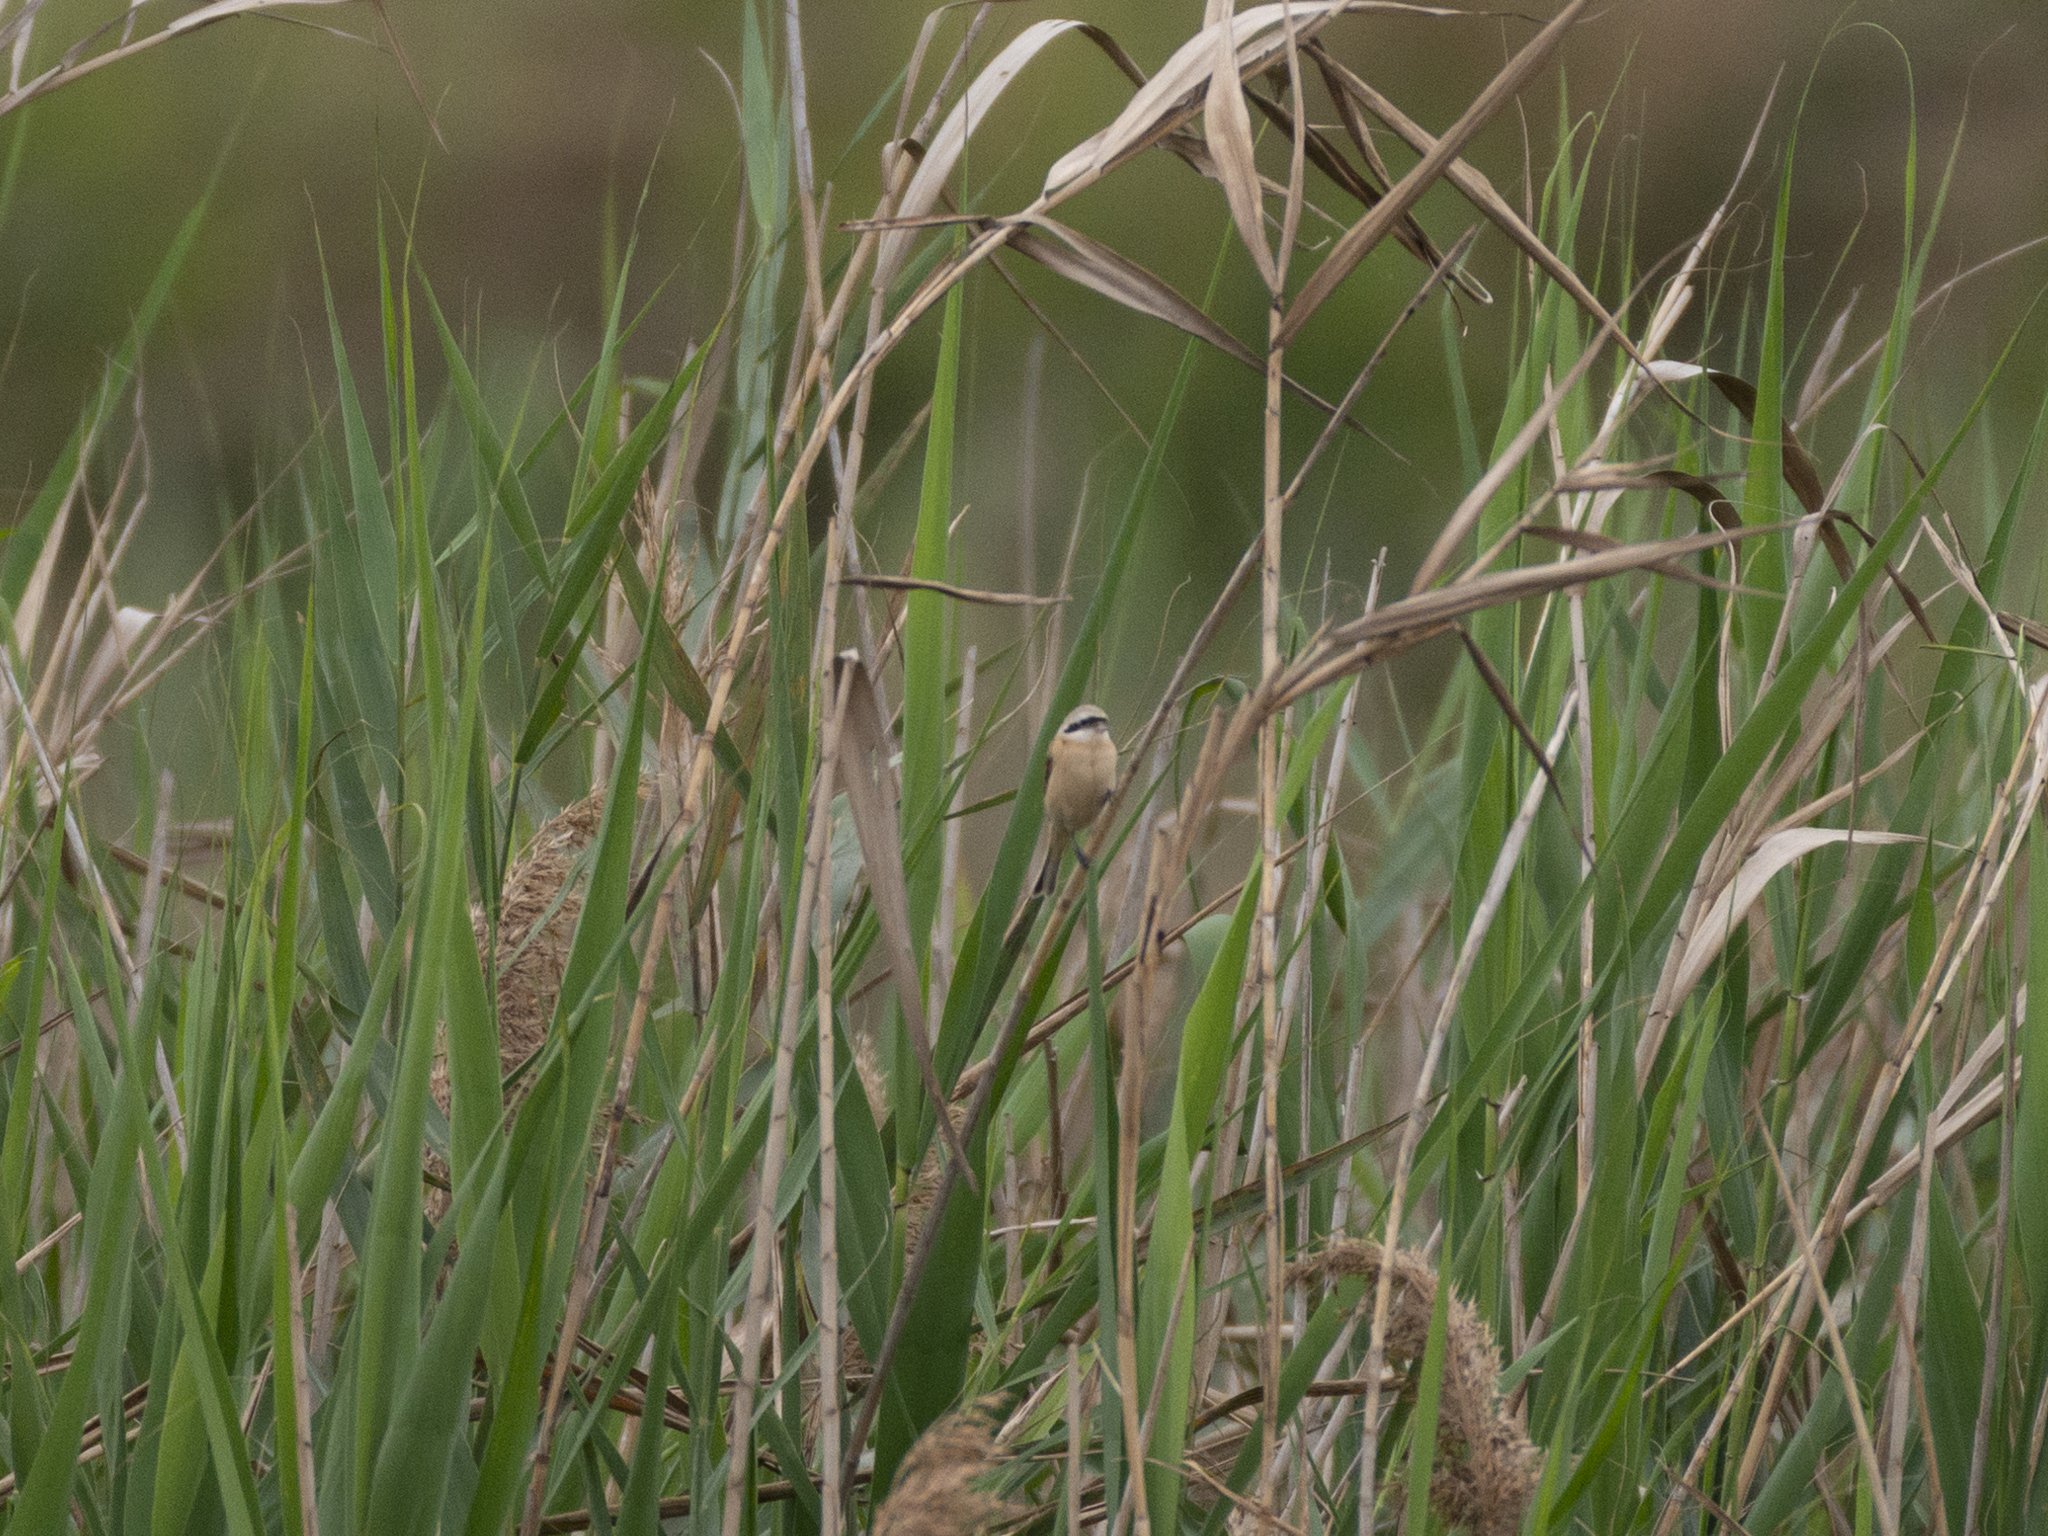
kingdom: Animalia
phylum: Chordata
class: Aves
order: Passeriformes
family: Remizidae
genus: Remiz
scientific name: Remiz consobrinus
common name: Chinese penduline tit
